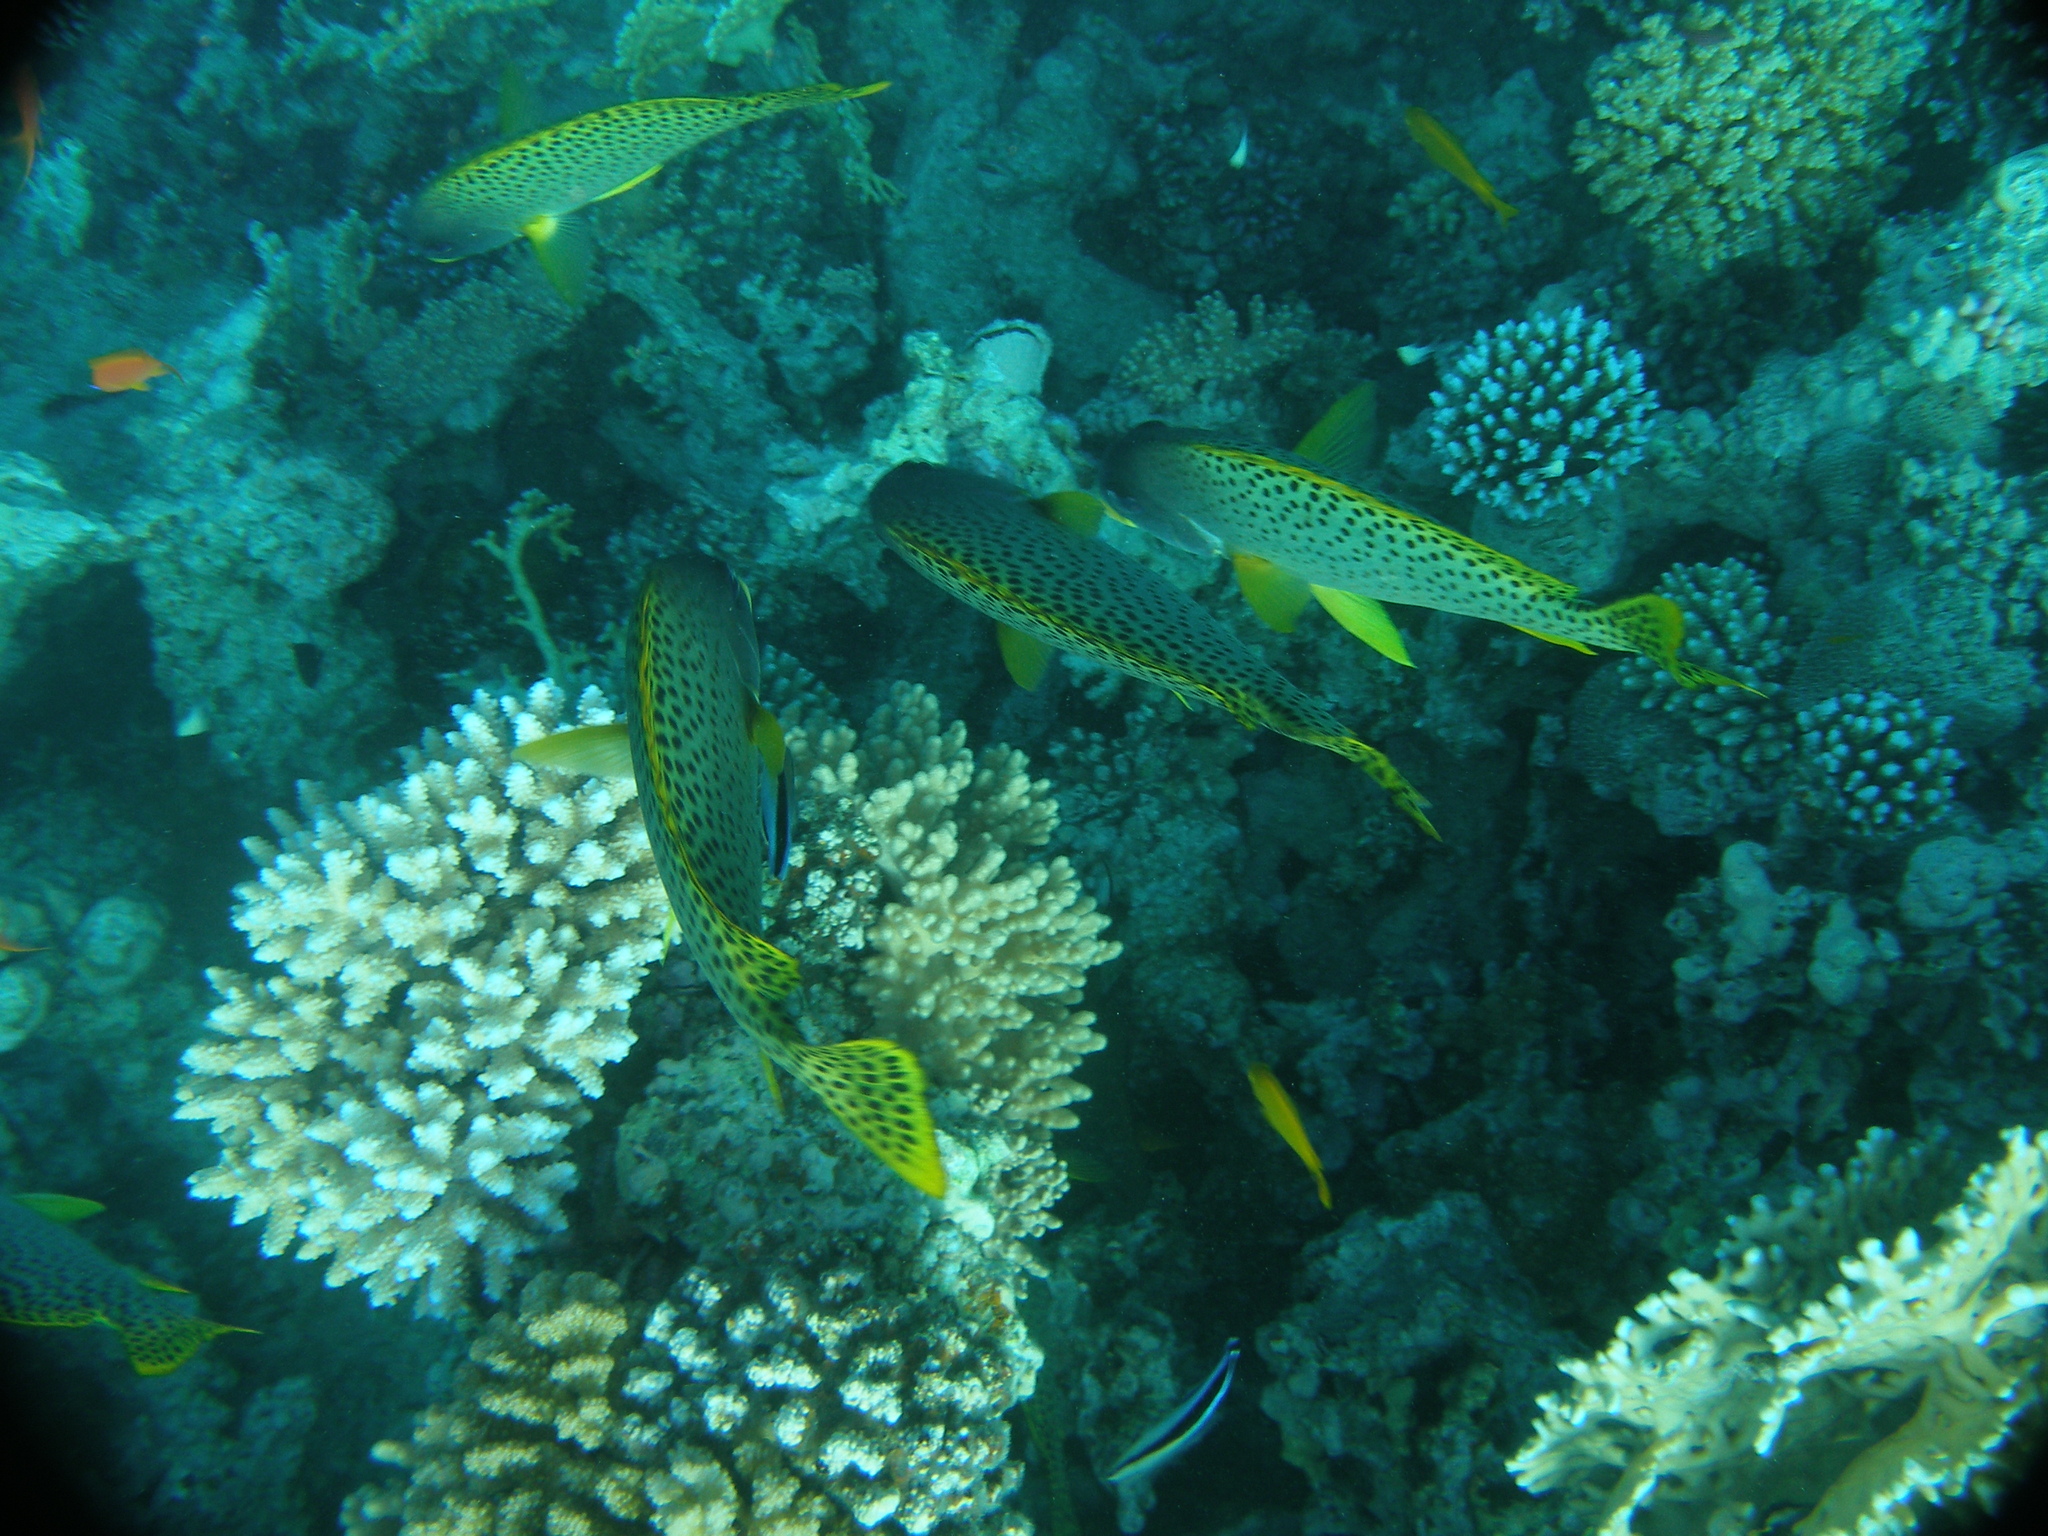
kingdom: Animalia
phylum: Chordata
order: Perciformes
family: Haemulidae
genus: Plectorhinchus
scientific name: Plectorhinchus gaterinus
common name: Blackspotted rubberlip
